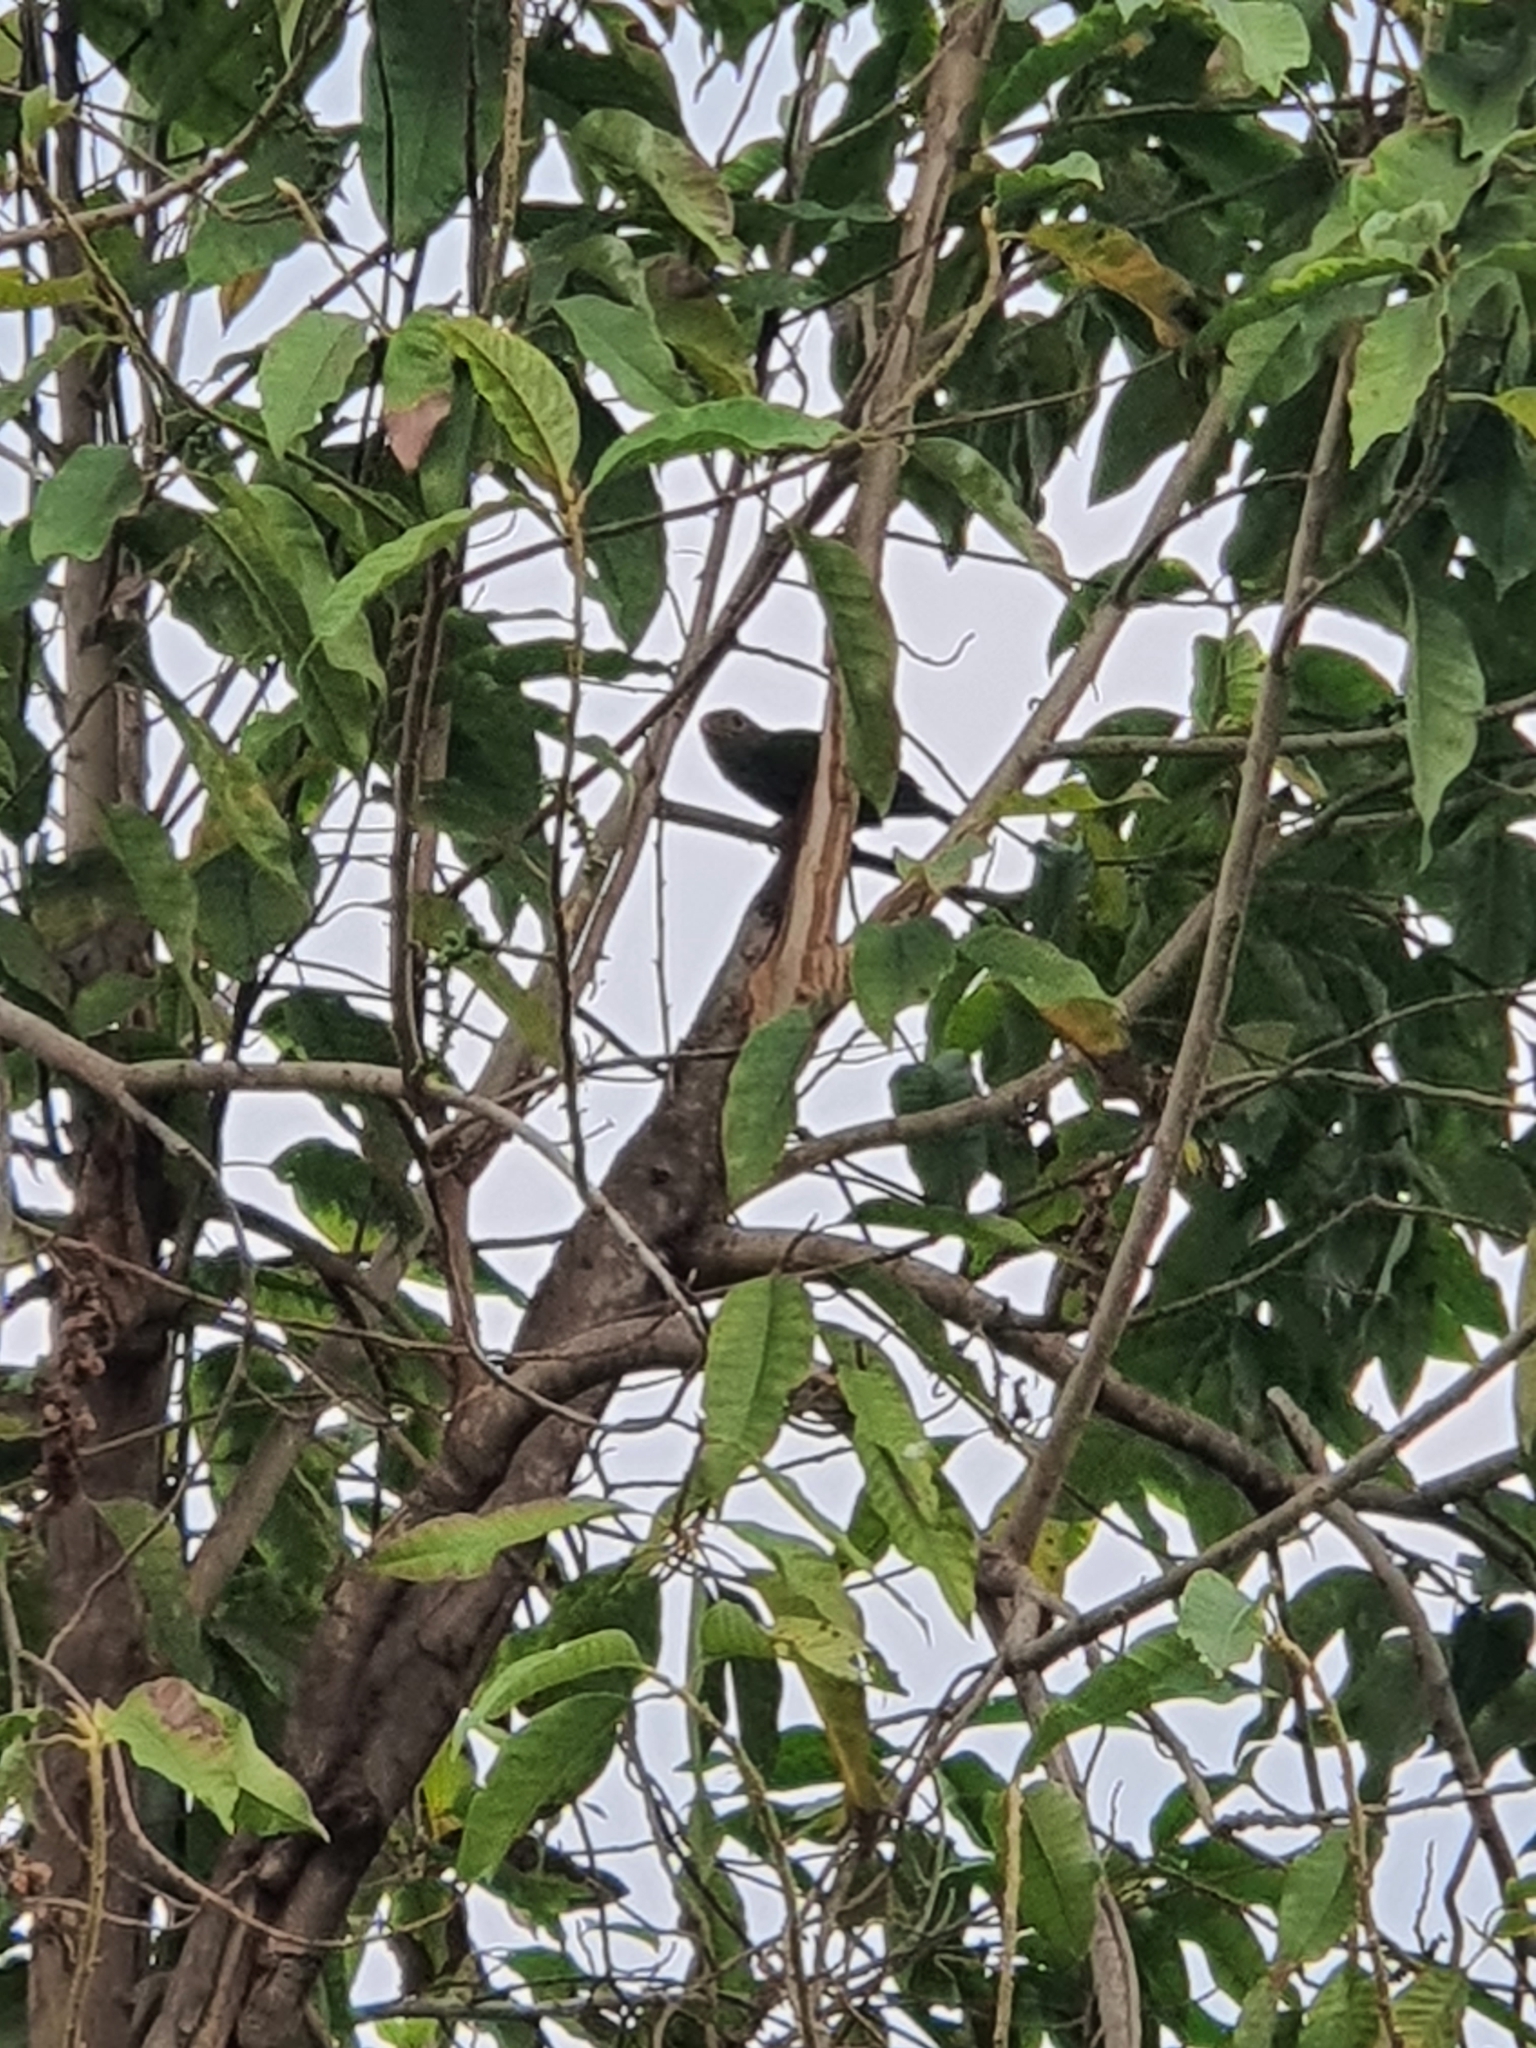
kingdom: Animalia
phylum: Chordata
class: Aves
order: Piciformes
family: Megalaimidae
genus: Psilopogon
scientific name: Psilopogon lineatus
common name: Lineated barbet
